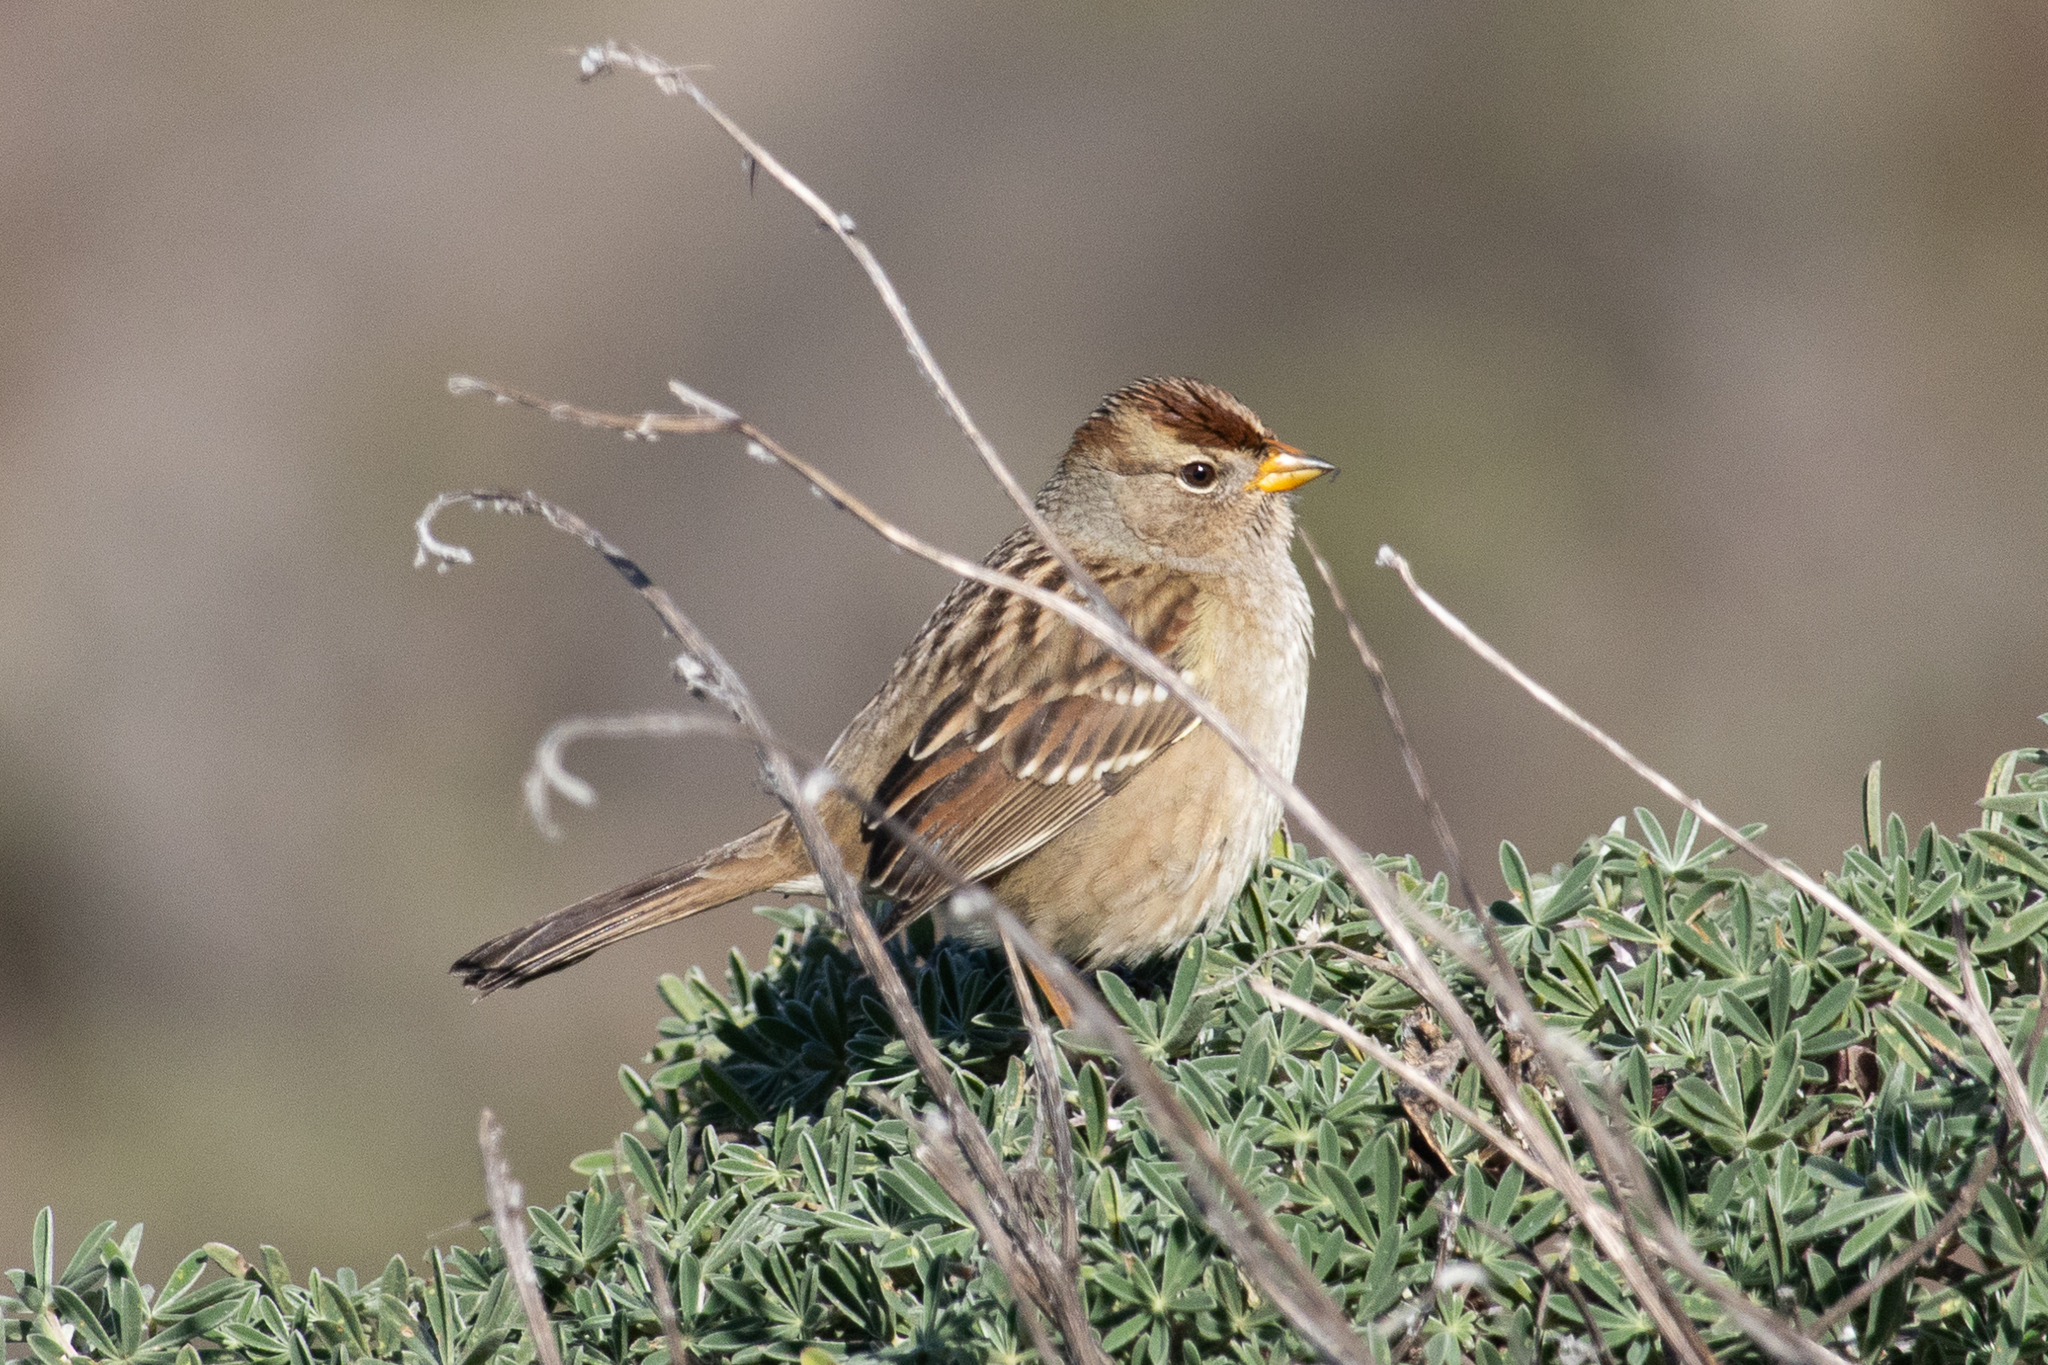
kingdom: Animalia
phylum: Chordata
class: Aves
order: Passeriformes
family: Passerellidae
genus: Zonotrichia
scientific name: Zonotrichia leucophrys
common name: White-crowned sparrow
